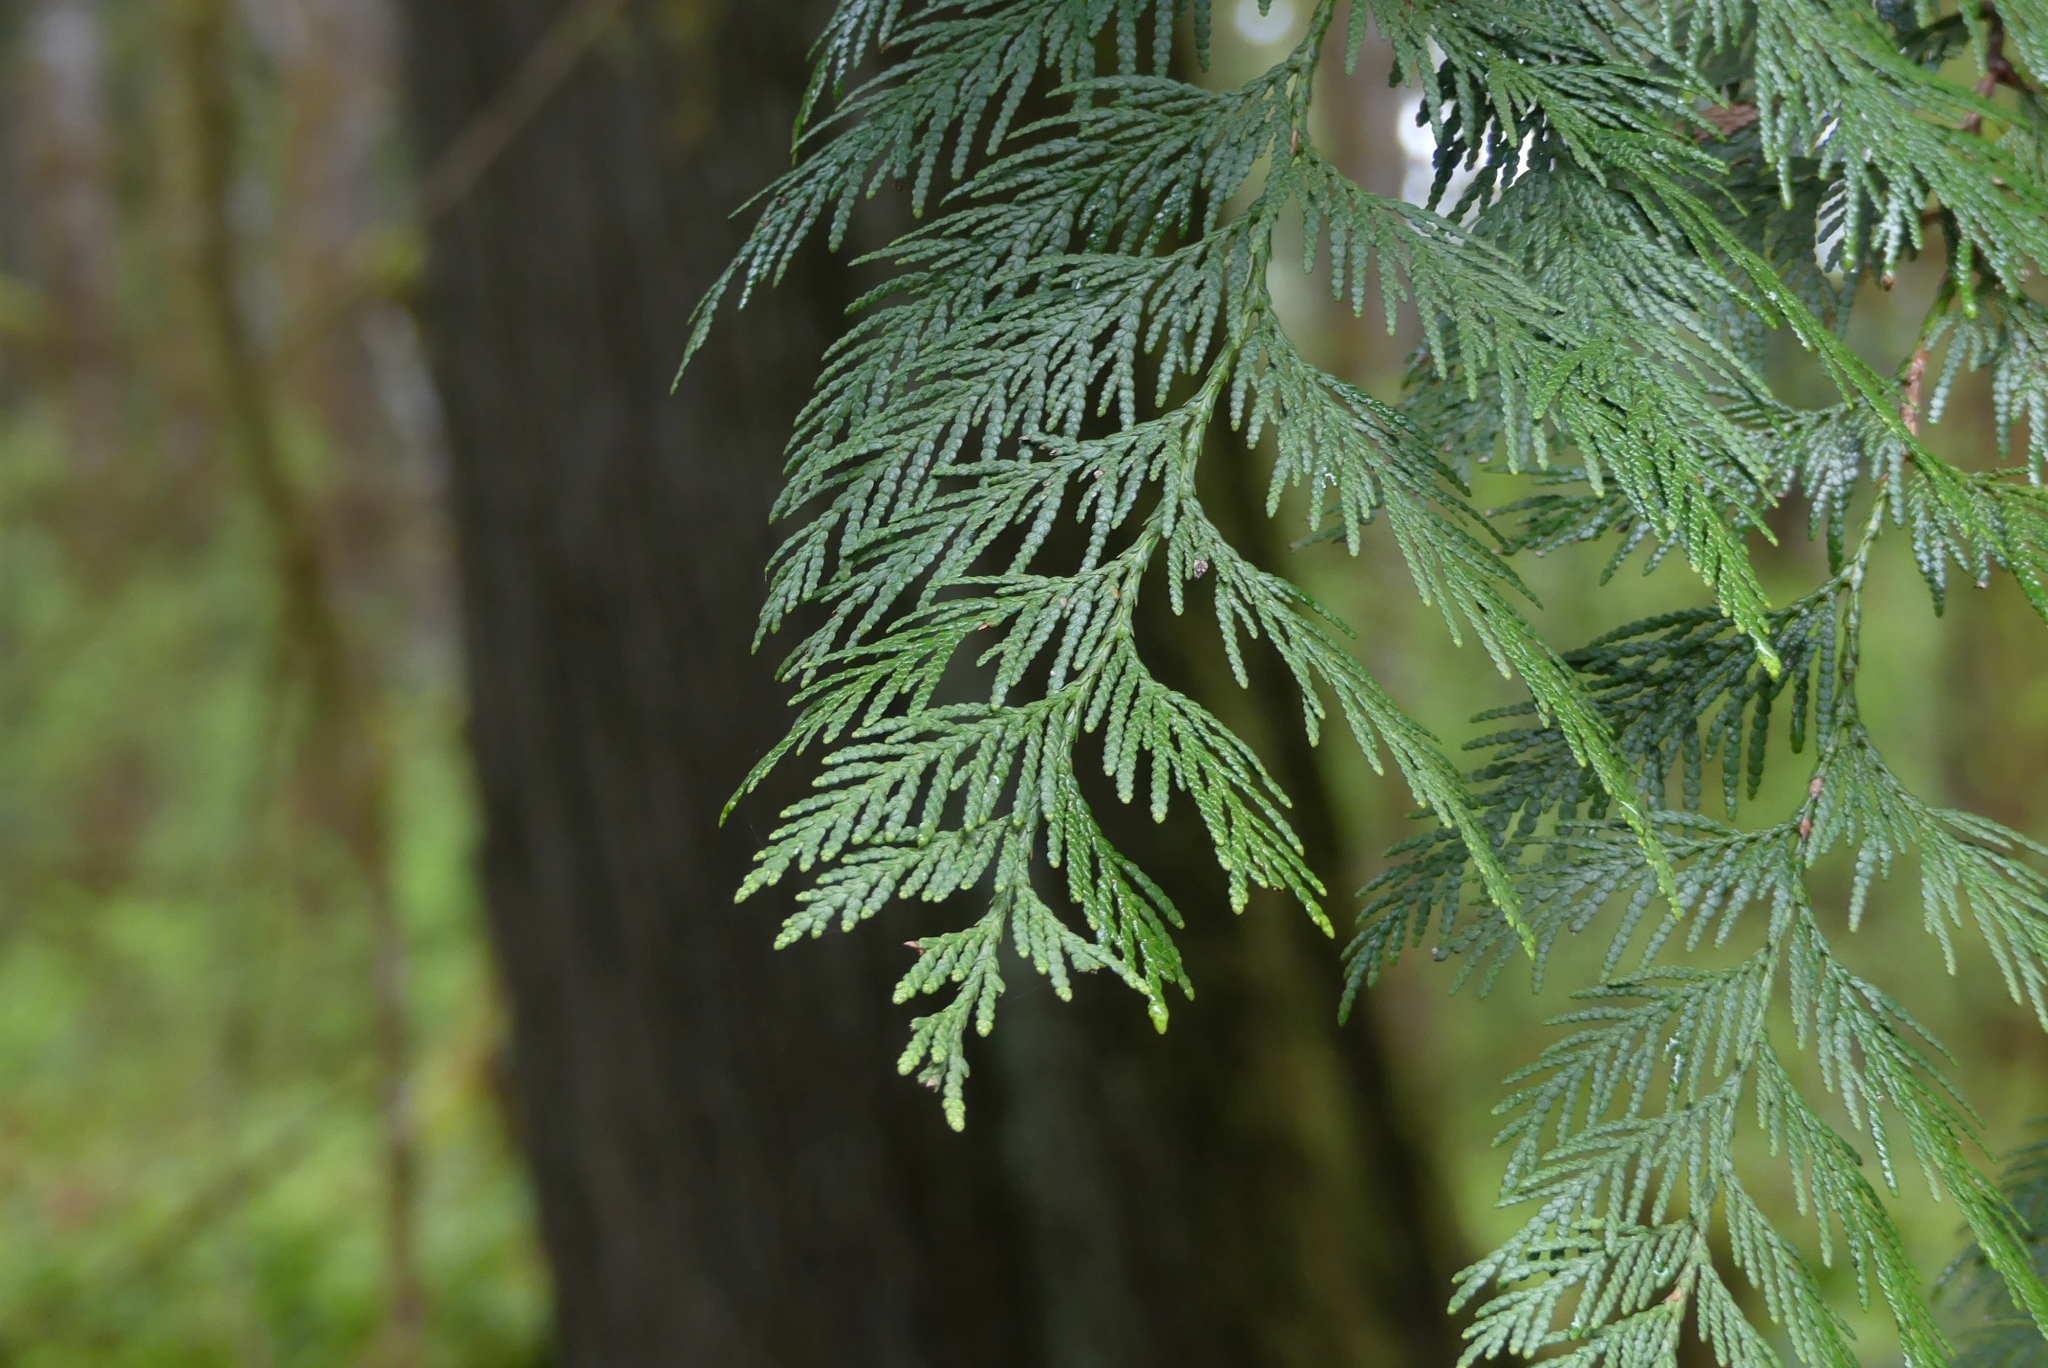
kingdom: Plantae
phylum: Tracheophyta
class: Pinopsida
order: Pinales
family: Cupressaceae
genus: Thuja
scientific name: Thuja plicata
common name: Western red-cedar
